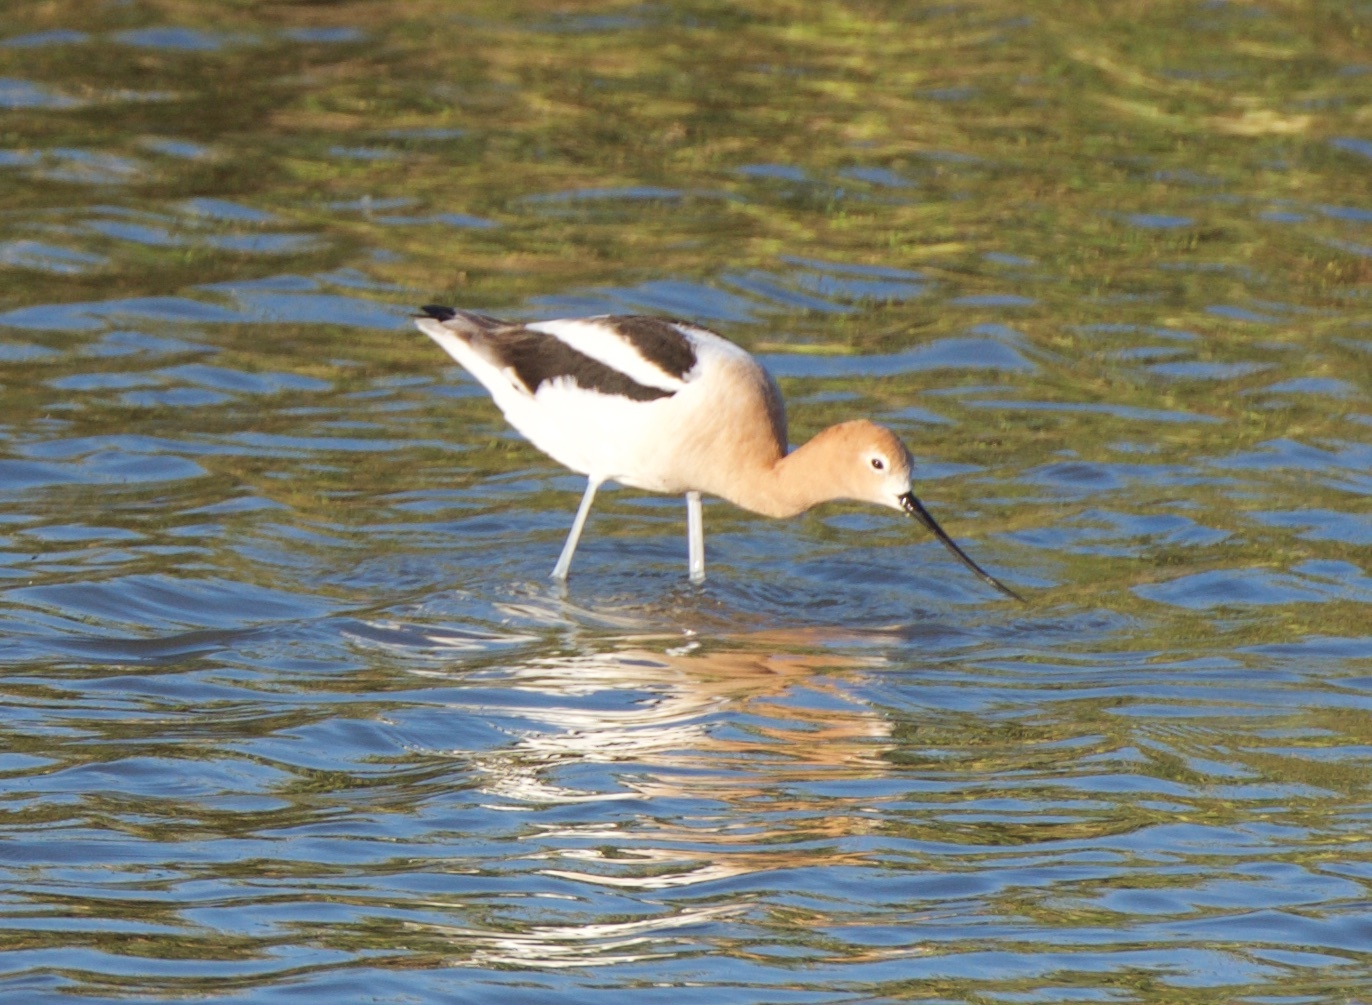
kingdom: Animalia
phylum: Chordata
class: Aves
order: Charadriiformes
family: Recurvirostridae
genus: Recurvirostra
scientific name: Recurvirostra americana
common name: American avocet
